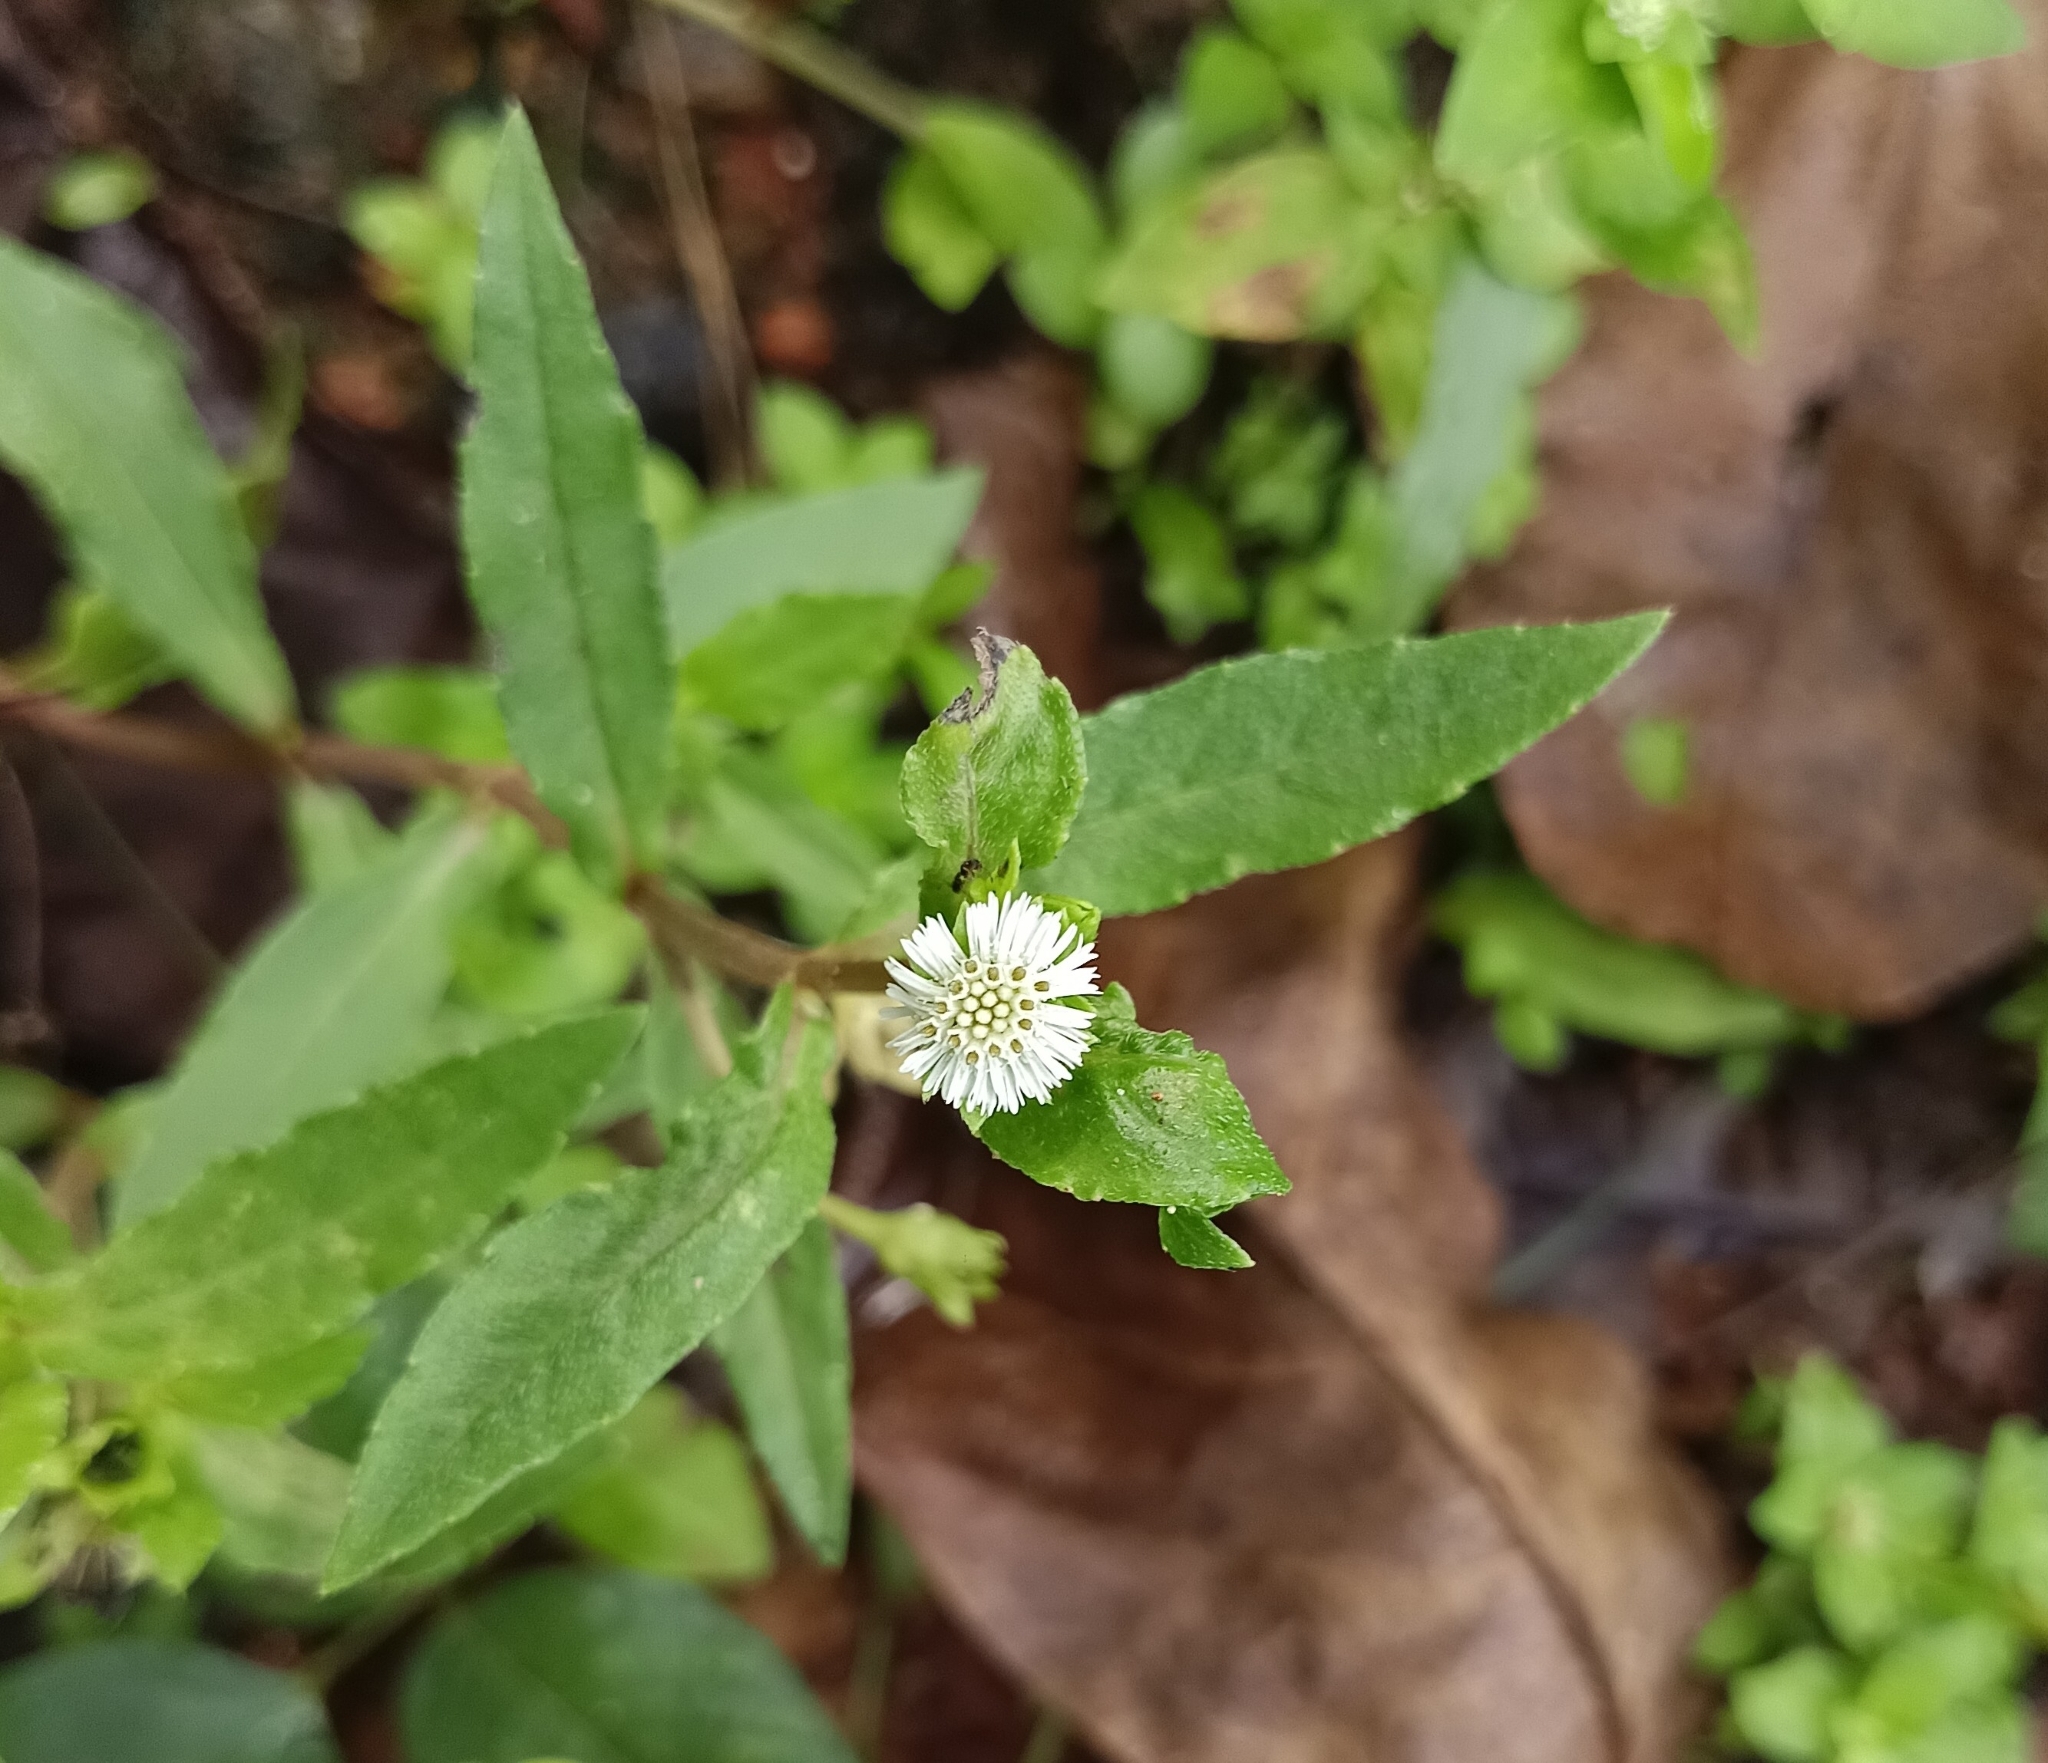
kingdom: Plantae
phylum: Tracheophyta
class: Magnoliopsida
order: Asterales
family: Asteraceae
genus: Eclipta
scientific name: Eclipta prostrata
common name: False daisy
